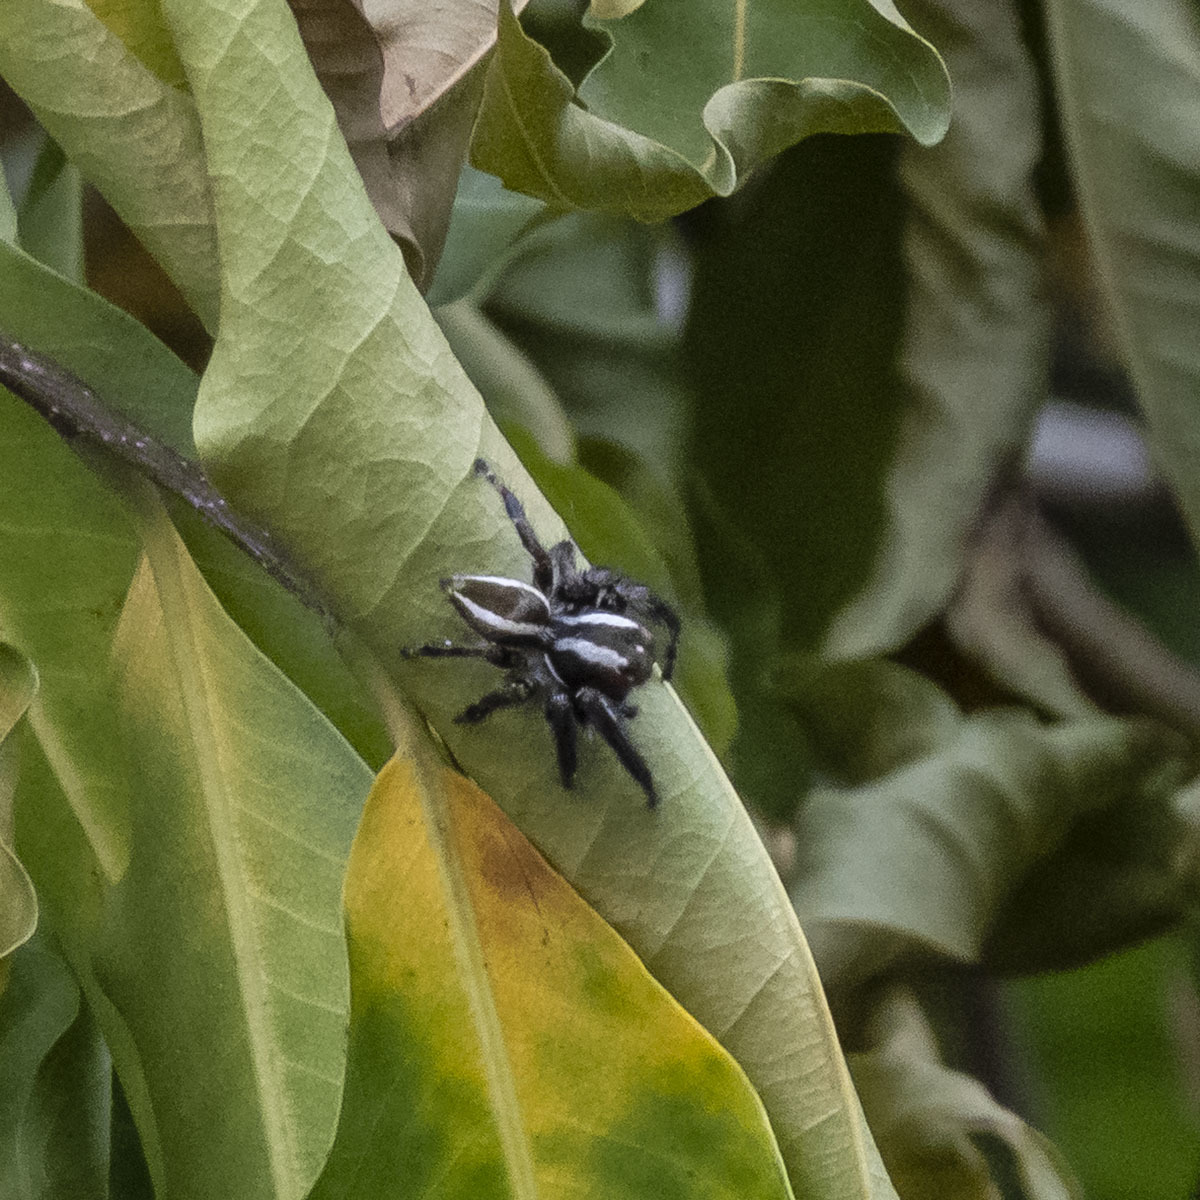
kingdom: Animalia
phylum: Arthropoda
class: Arachnida
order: Araneae
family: Salticidae
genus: Carrhotus
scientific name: Carrhotus viduus
